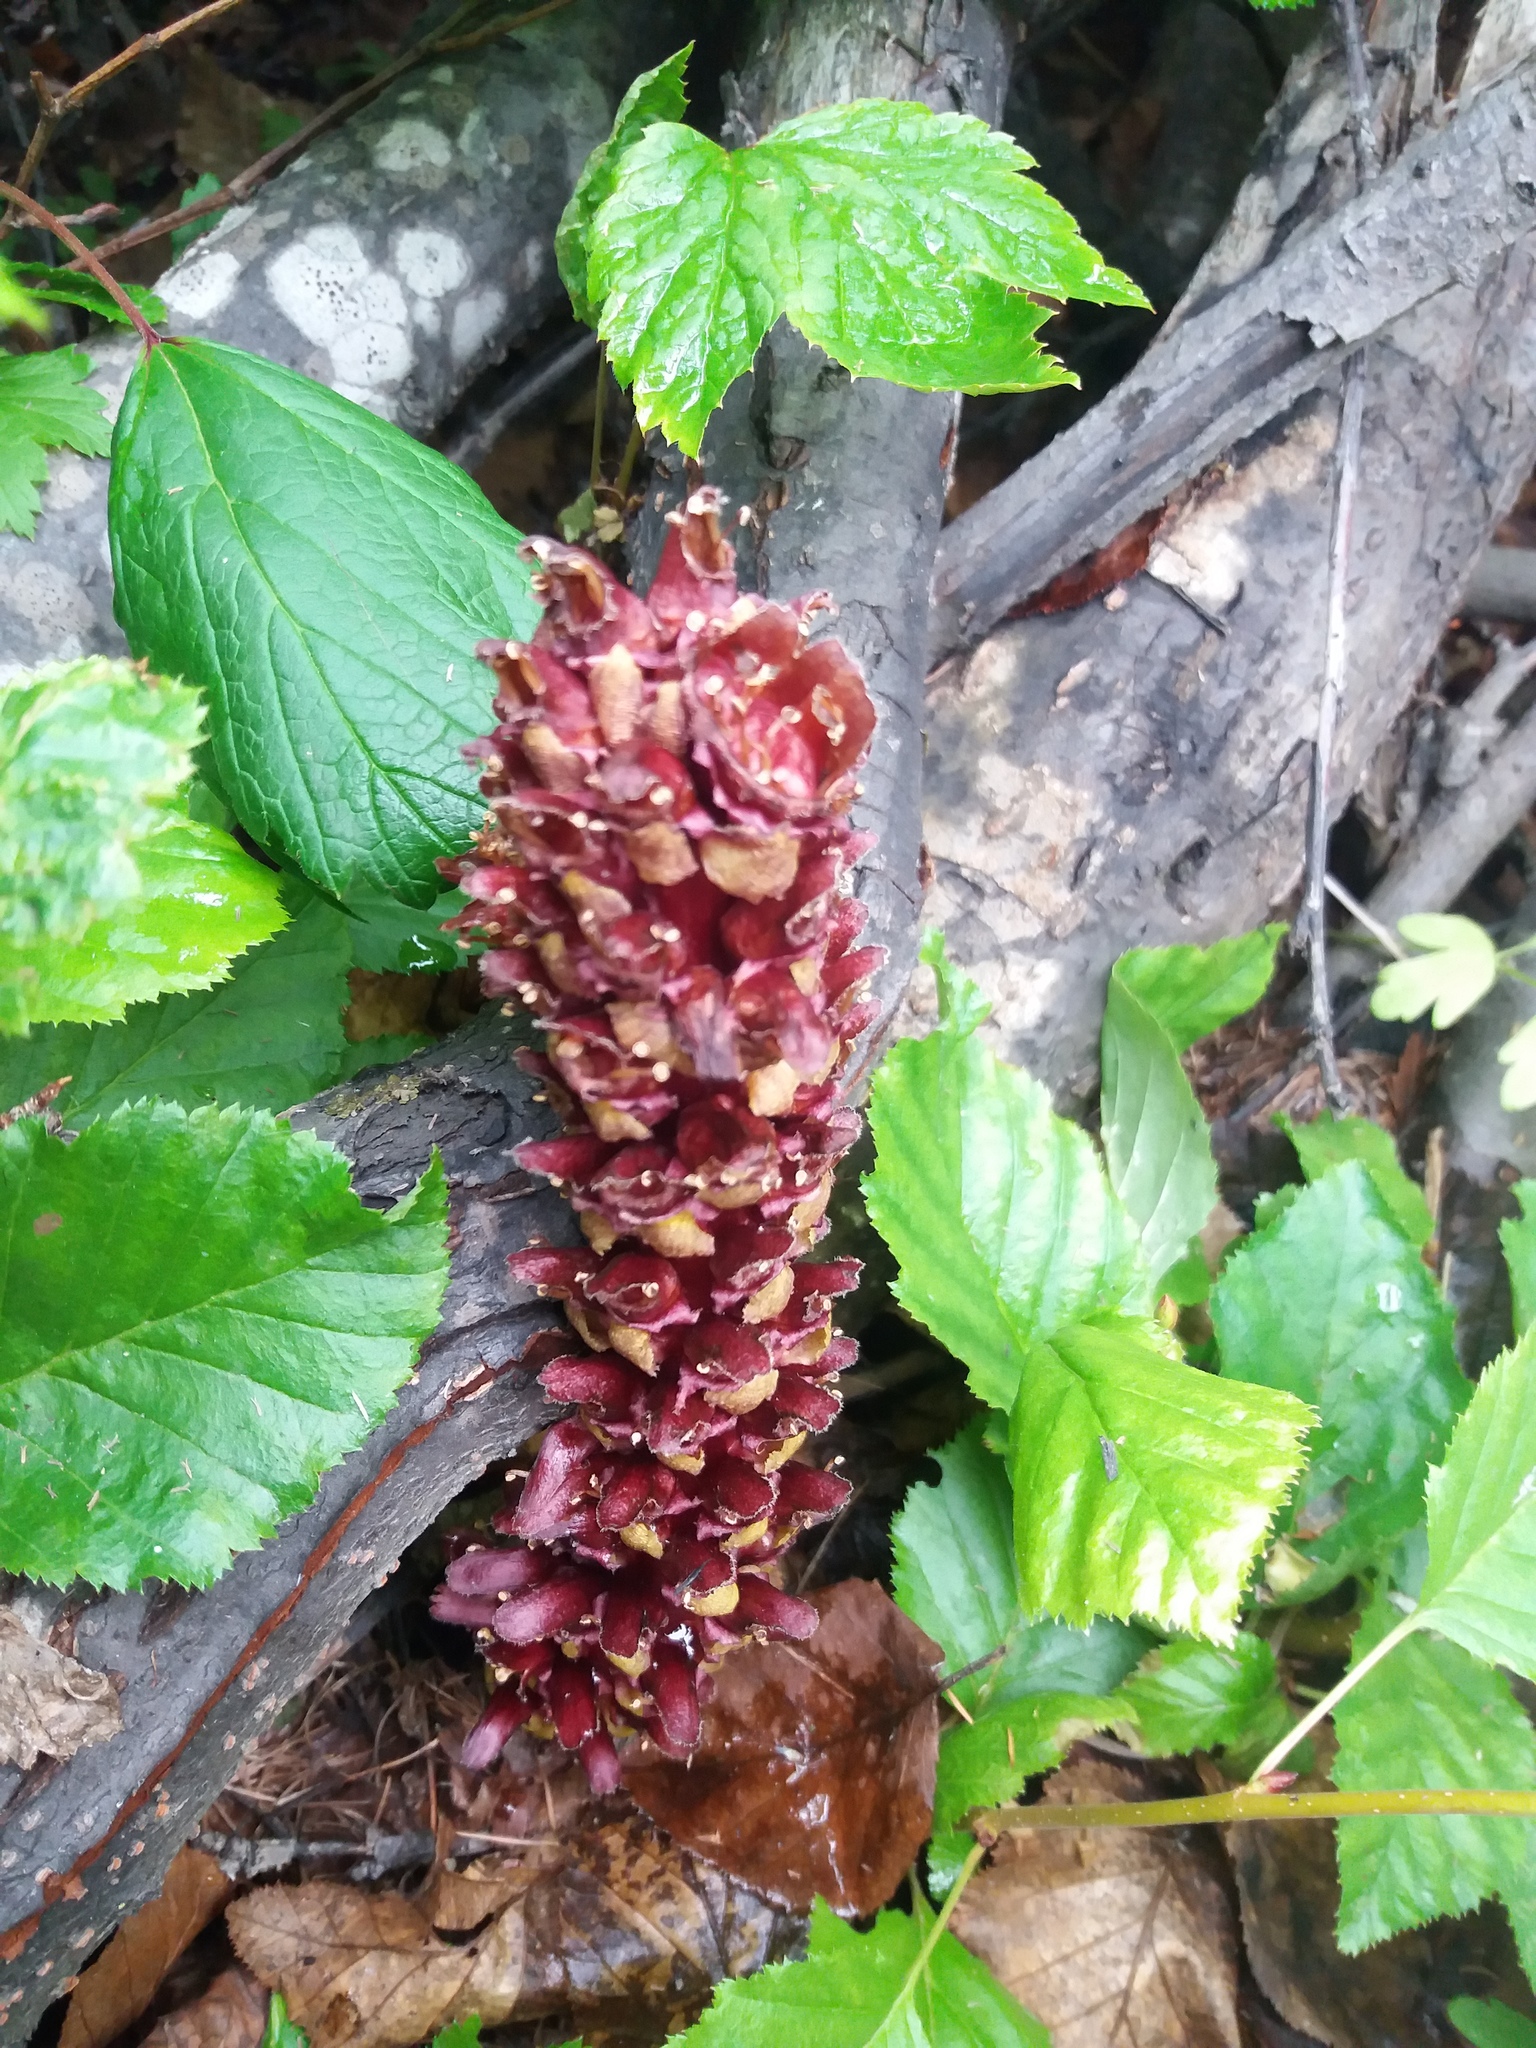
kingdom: Plantae
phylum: Tracheophyta
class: Magnoliopsida
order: Lamiales
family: Orobanchaceae
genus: Boschniakia
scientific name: Boschniakia rossica
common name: Poque
